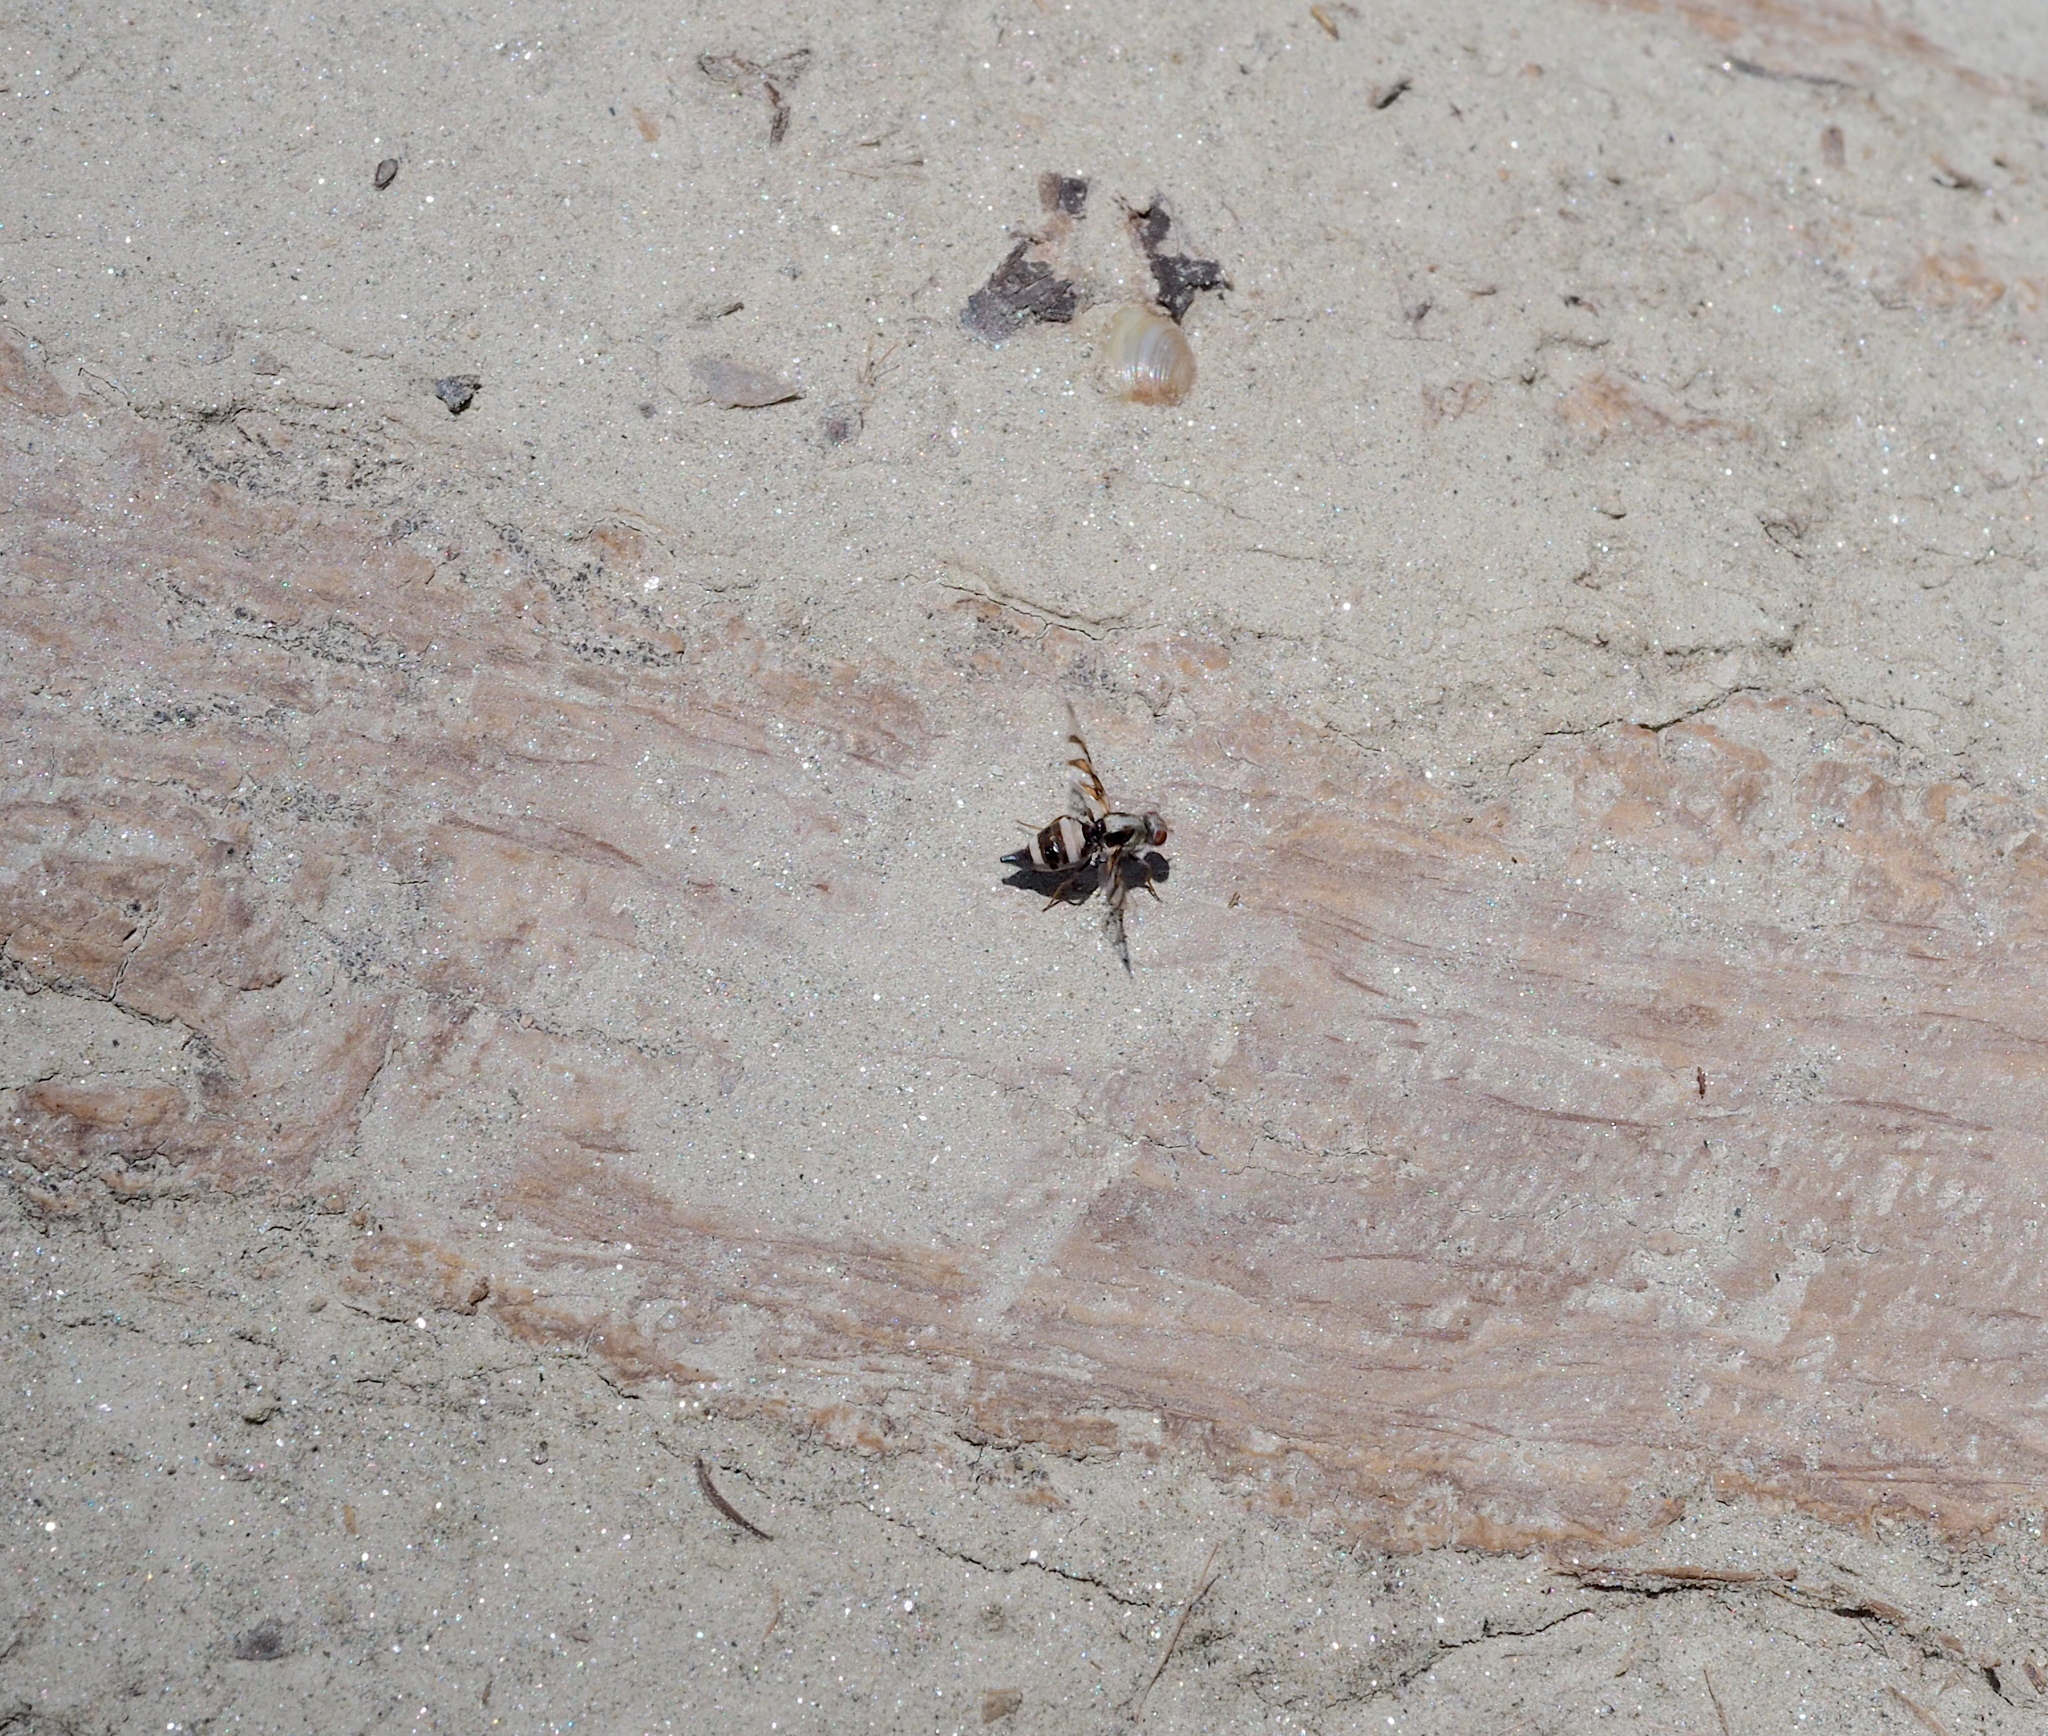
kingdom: Animalia
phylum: Arthropoda
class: Insecta
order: Diptera
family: Ulidiidae
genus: Myennis
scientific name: Myennis octopunctata
